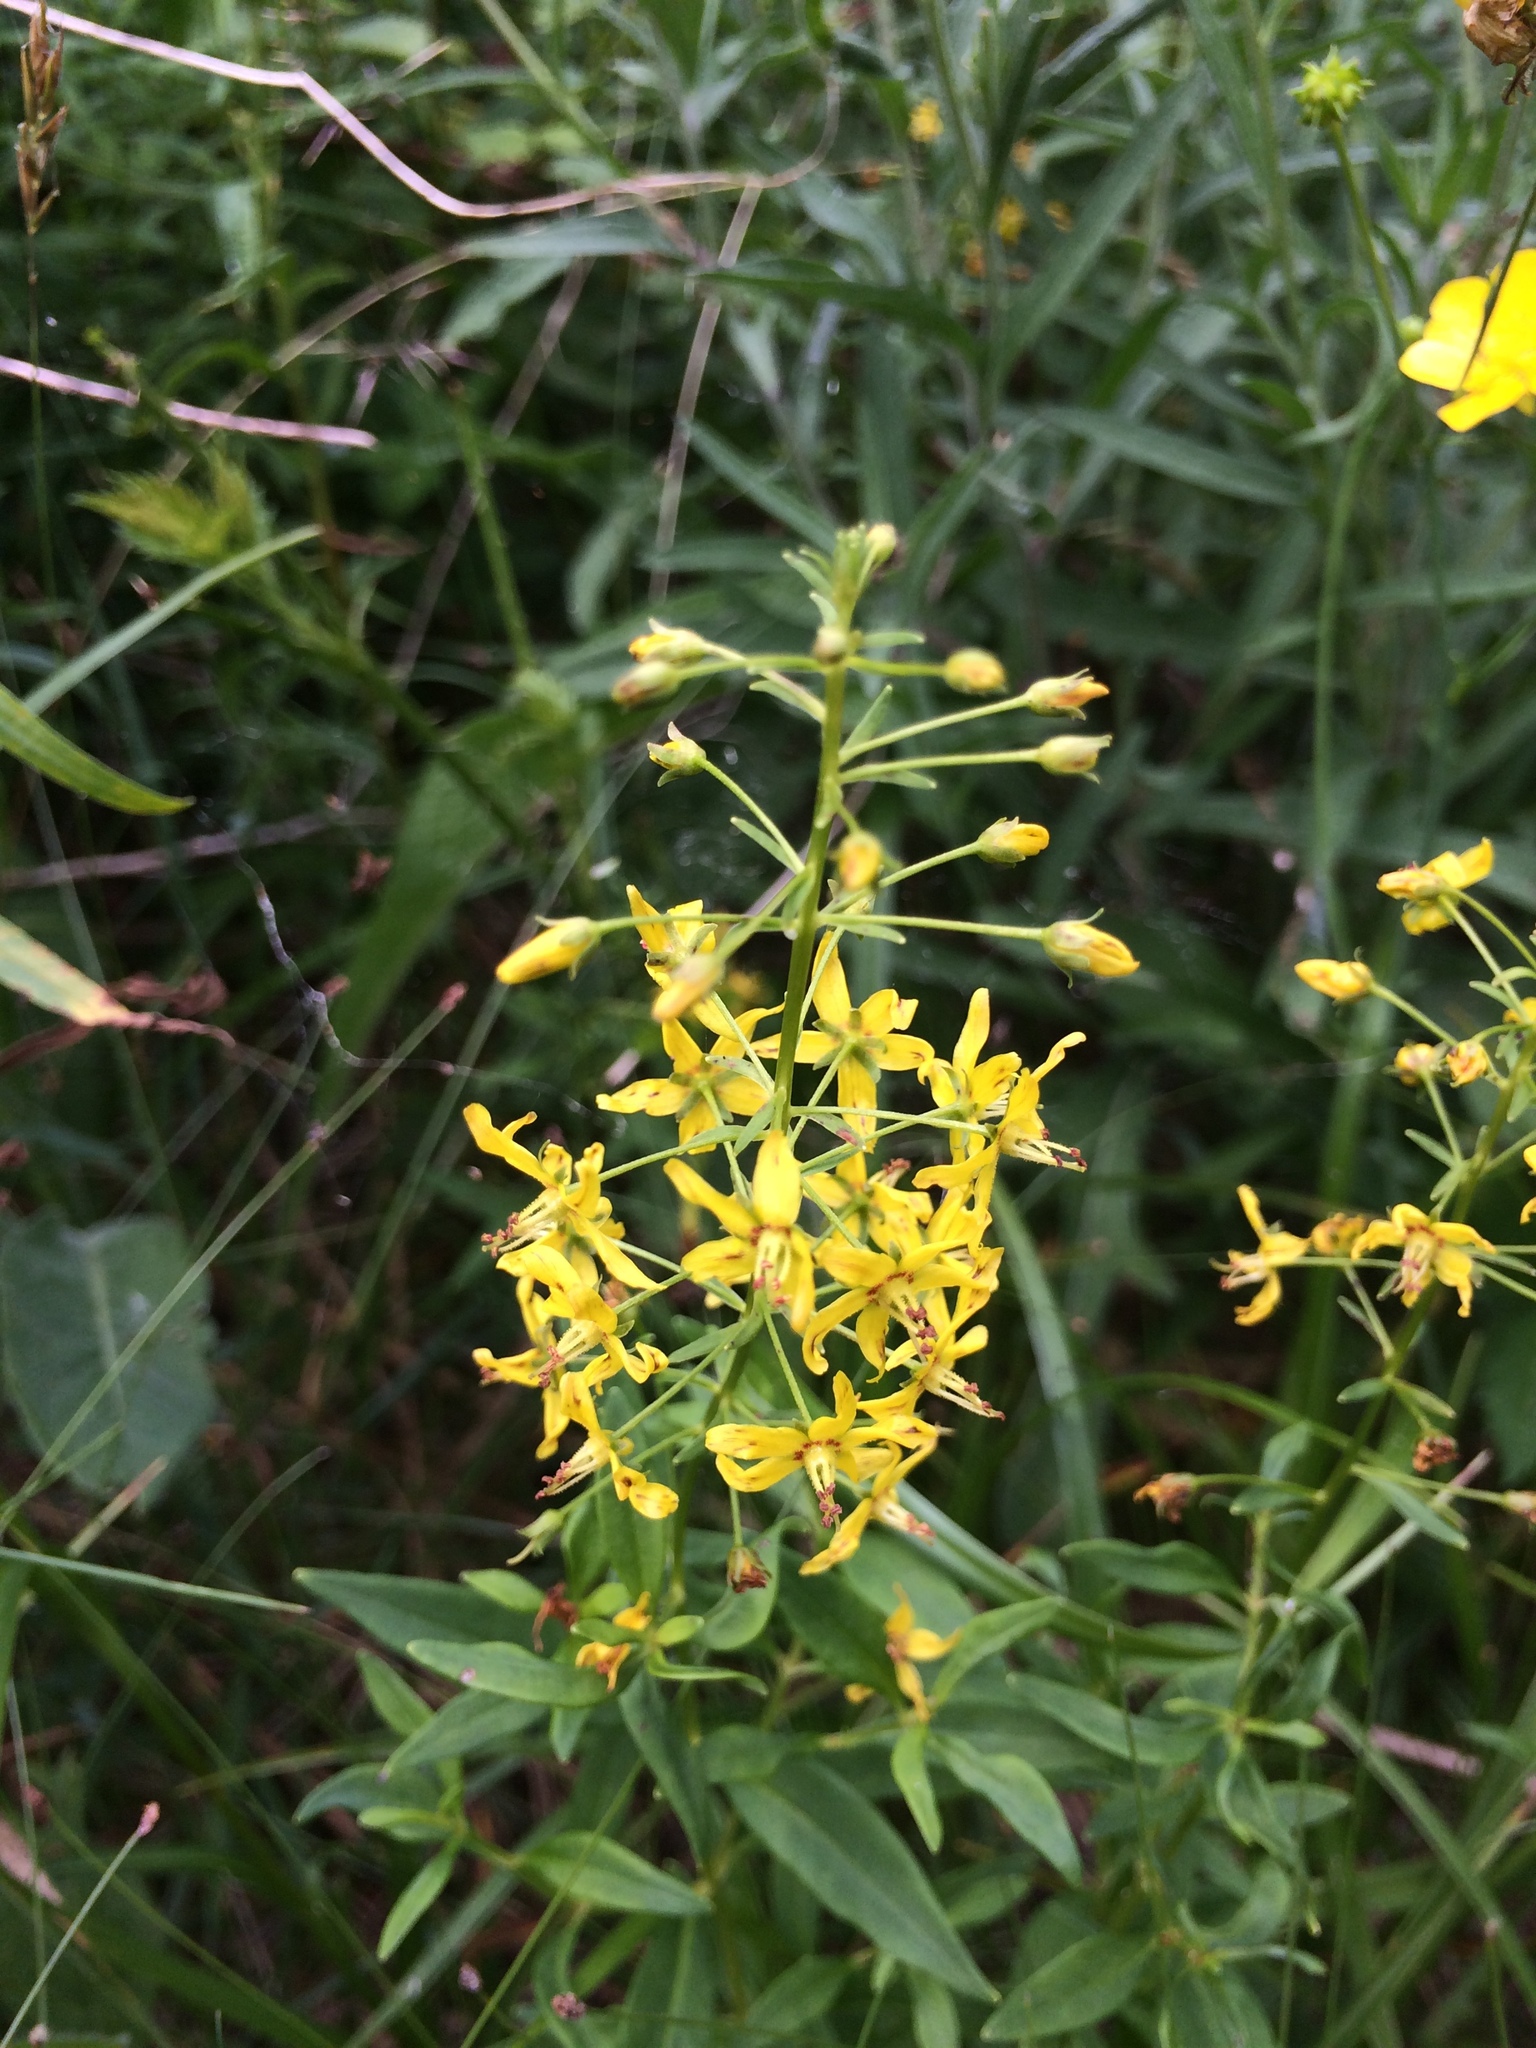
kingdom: Plantae
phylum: Tracheophyta
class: Magnoliopsida
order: Ericales
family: Primulaceae
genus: Lysimachia
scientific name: Lysimachia terrestris
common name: Lake loosestrife
